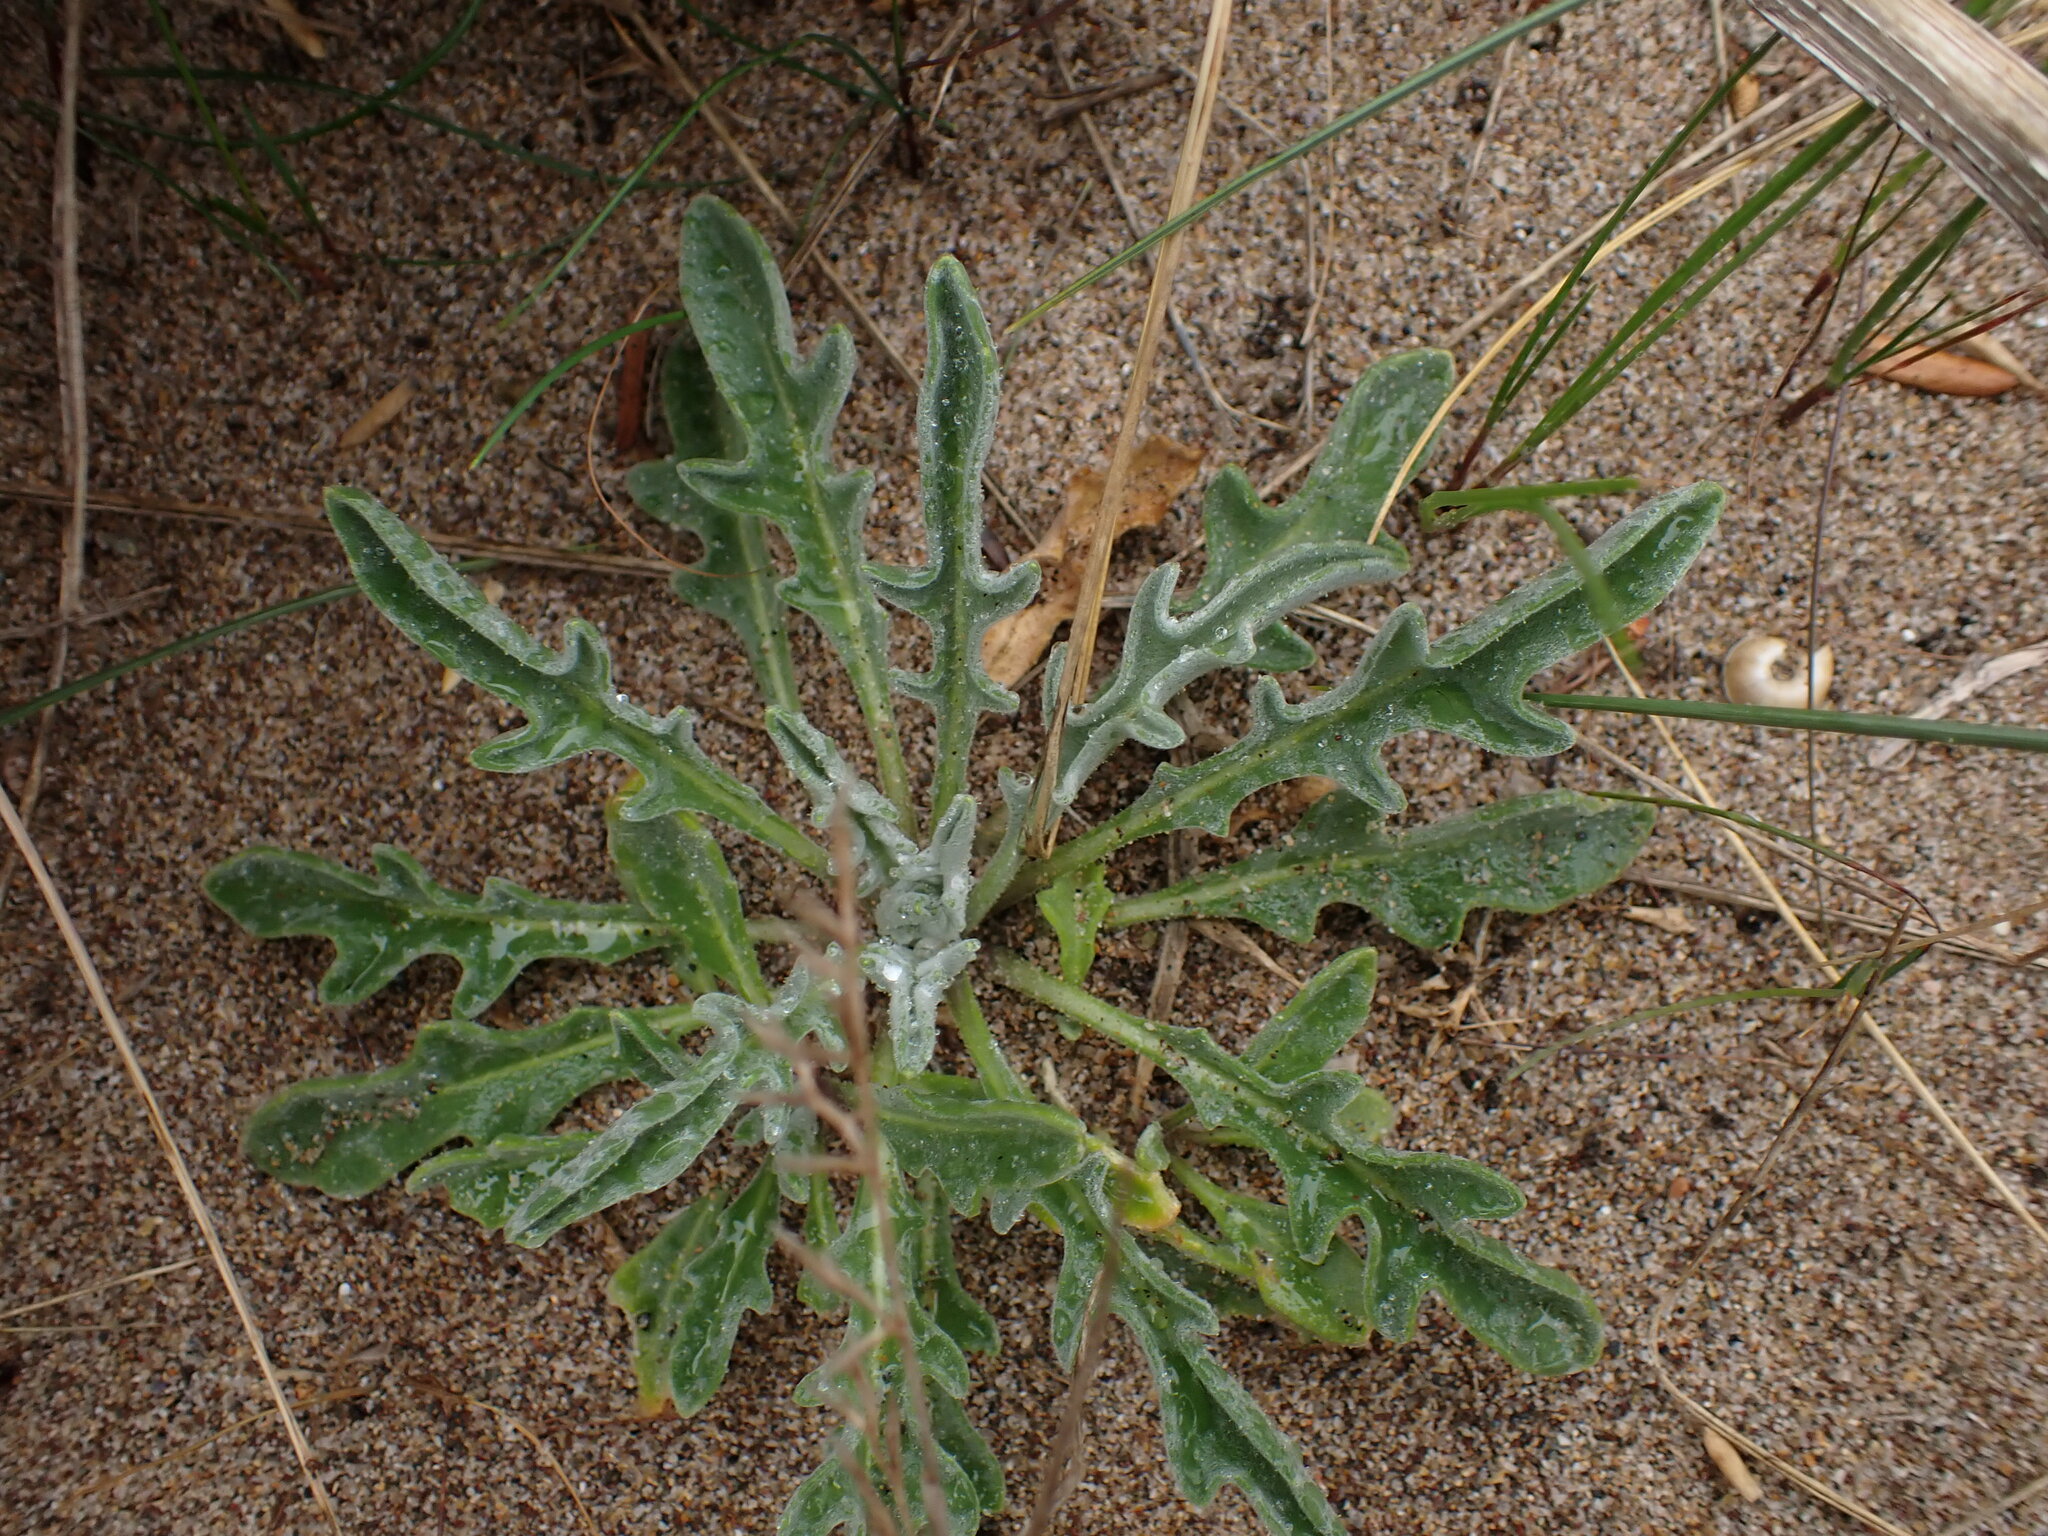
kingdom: Plantae
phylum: Tracheophyta
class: Magnoliopsida
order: Brassicales
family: Brassicaceae
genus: Matthiola
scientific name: Matthiola sinuata
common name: Sea stock
